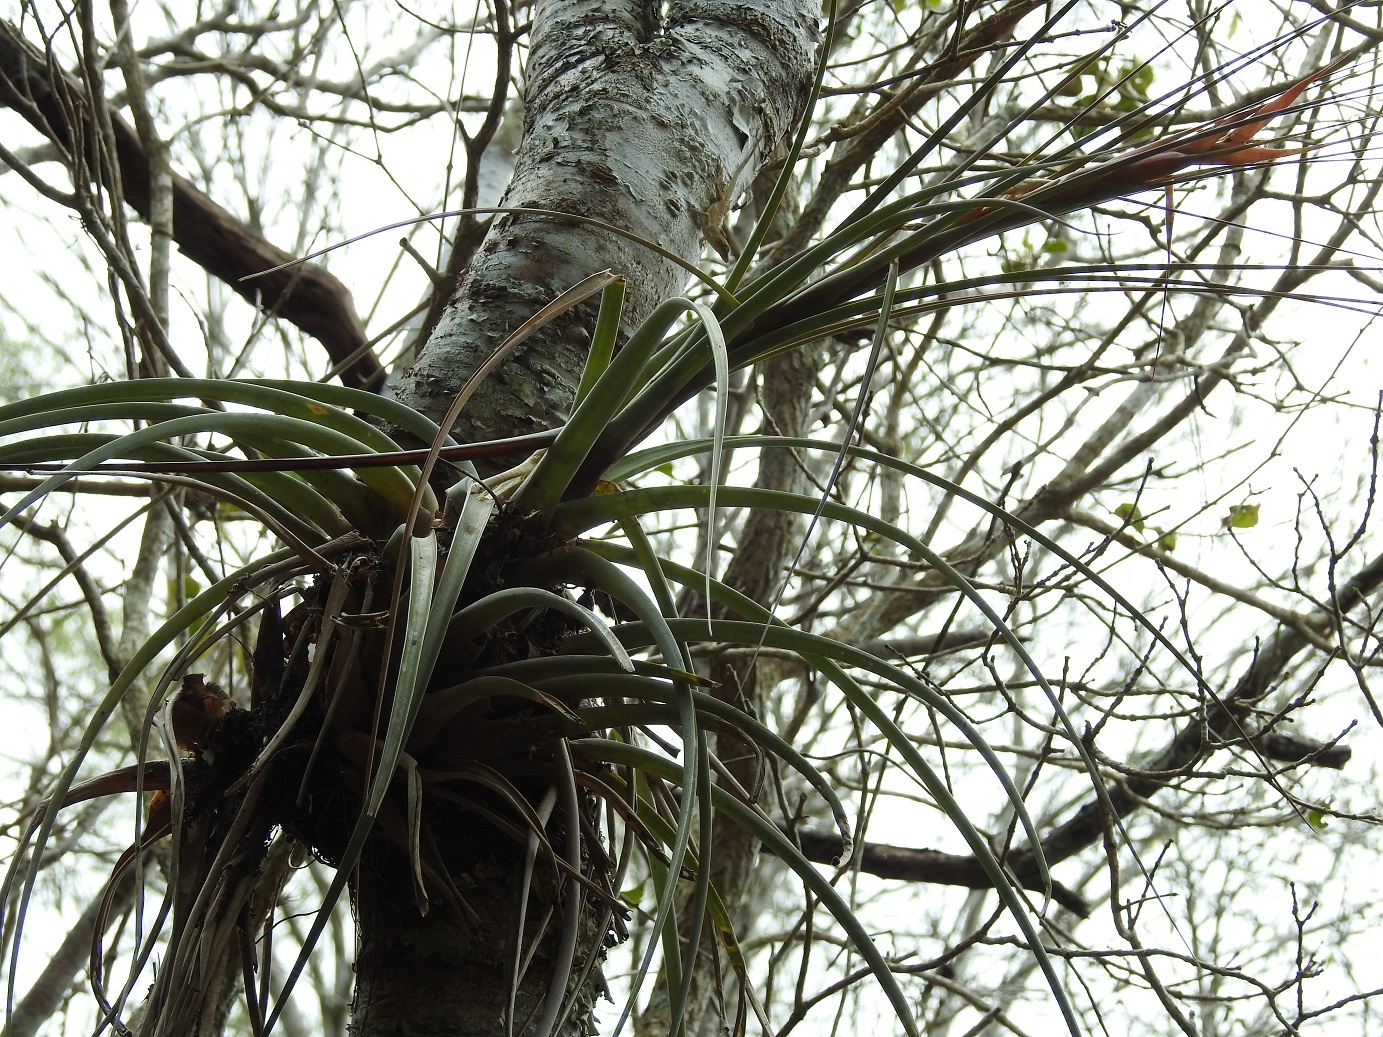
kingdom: Plantae
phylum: Tracheophyta
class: Liliopsida
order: Poales
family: Bromeliaceae
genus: Tillandsia
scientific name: Tillandsia fasciculata
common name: Giant airplant
